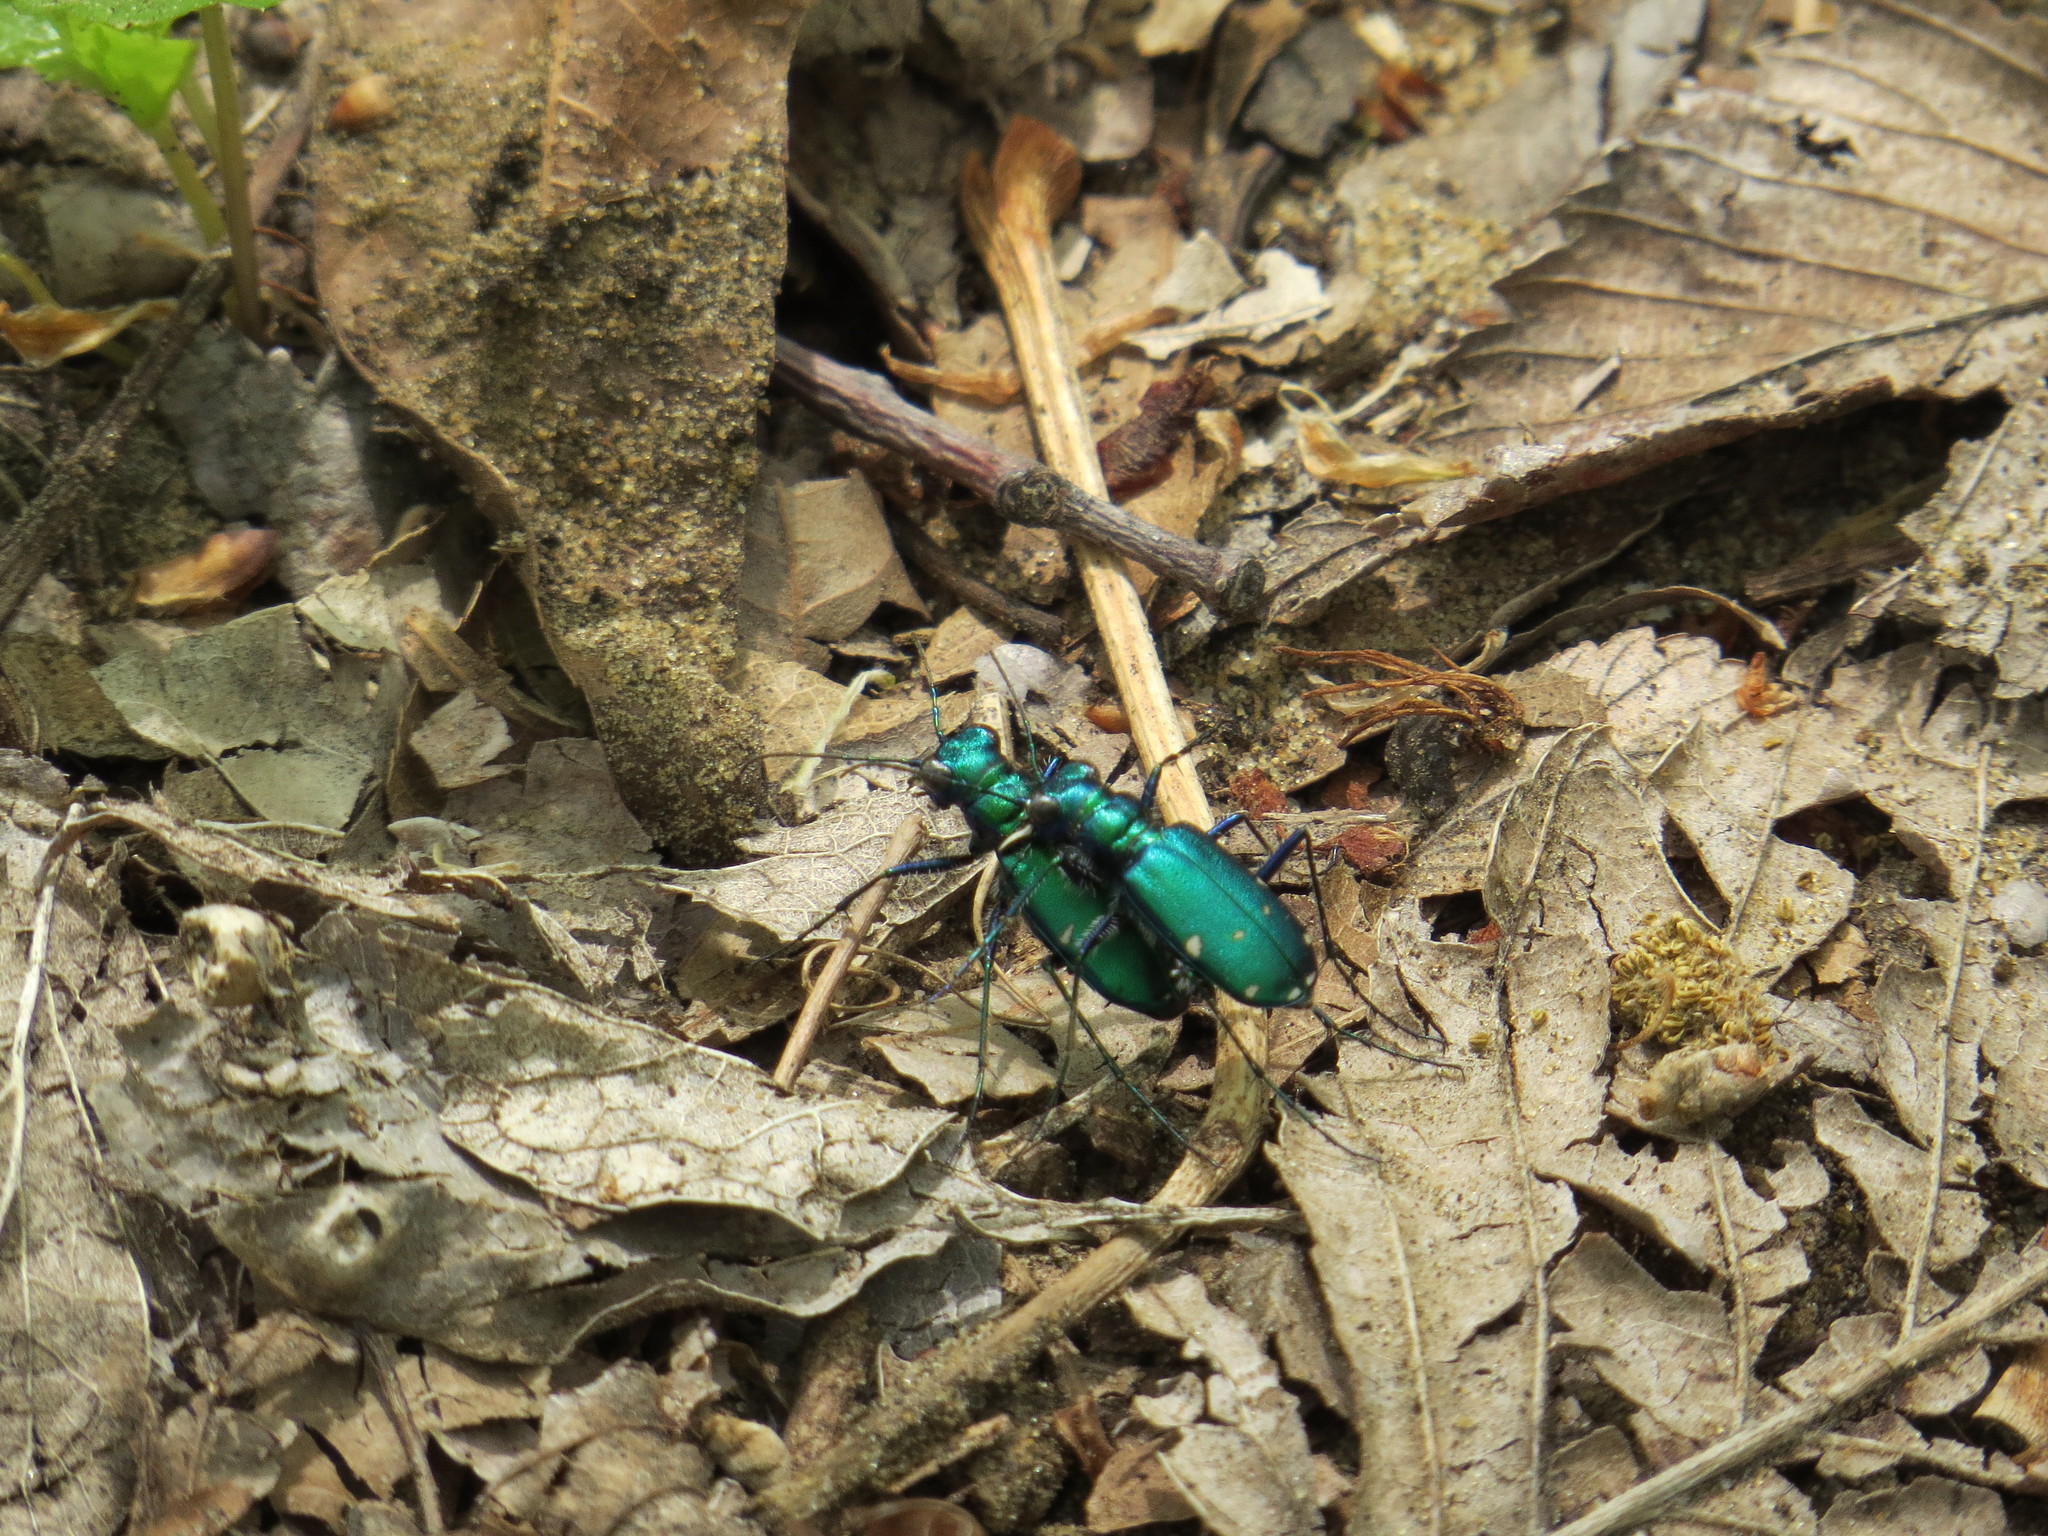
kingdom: Animalia
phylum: Arthropoda
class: Insecta
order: Coleoptera
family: Carabidae
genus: Cicindela
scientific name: Cicindela sexguttata
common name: Six-spotted tiger beetle
